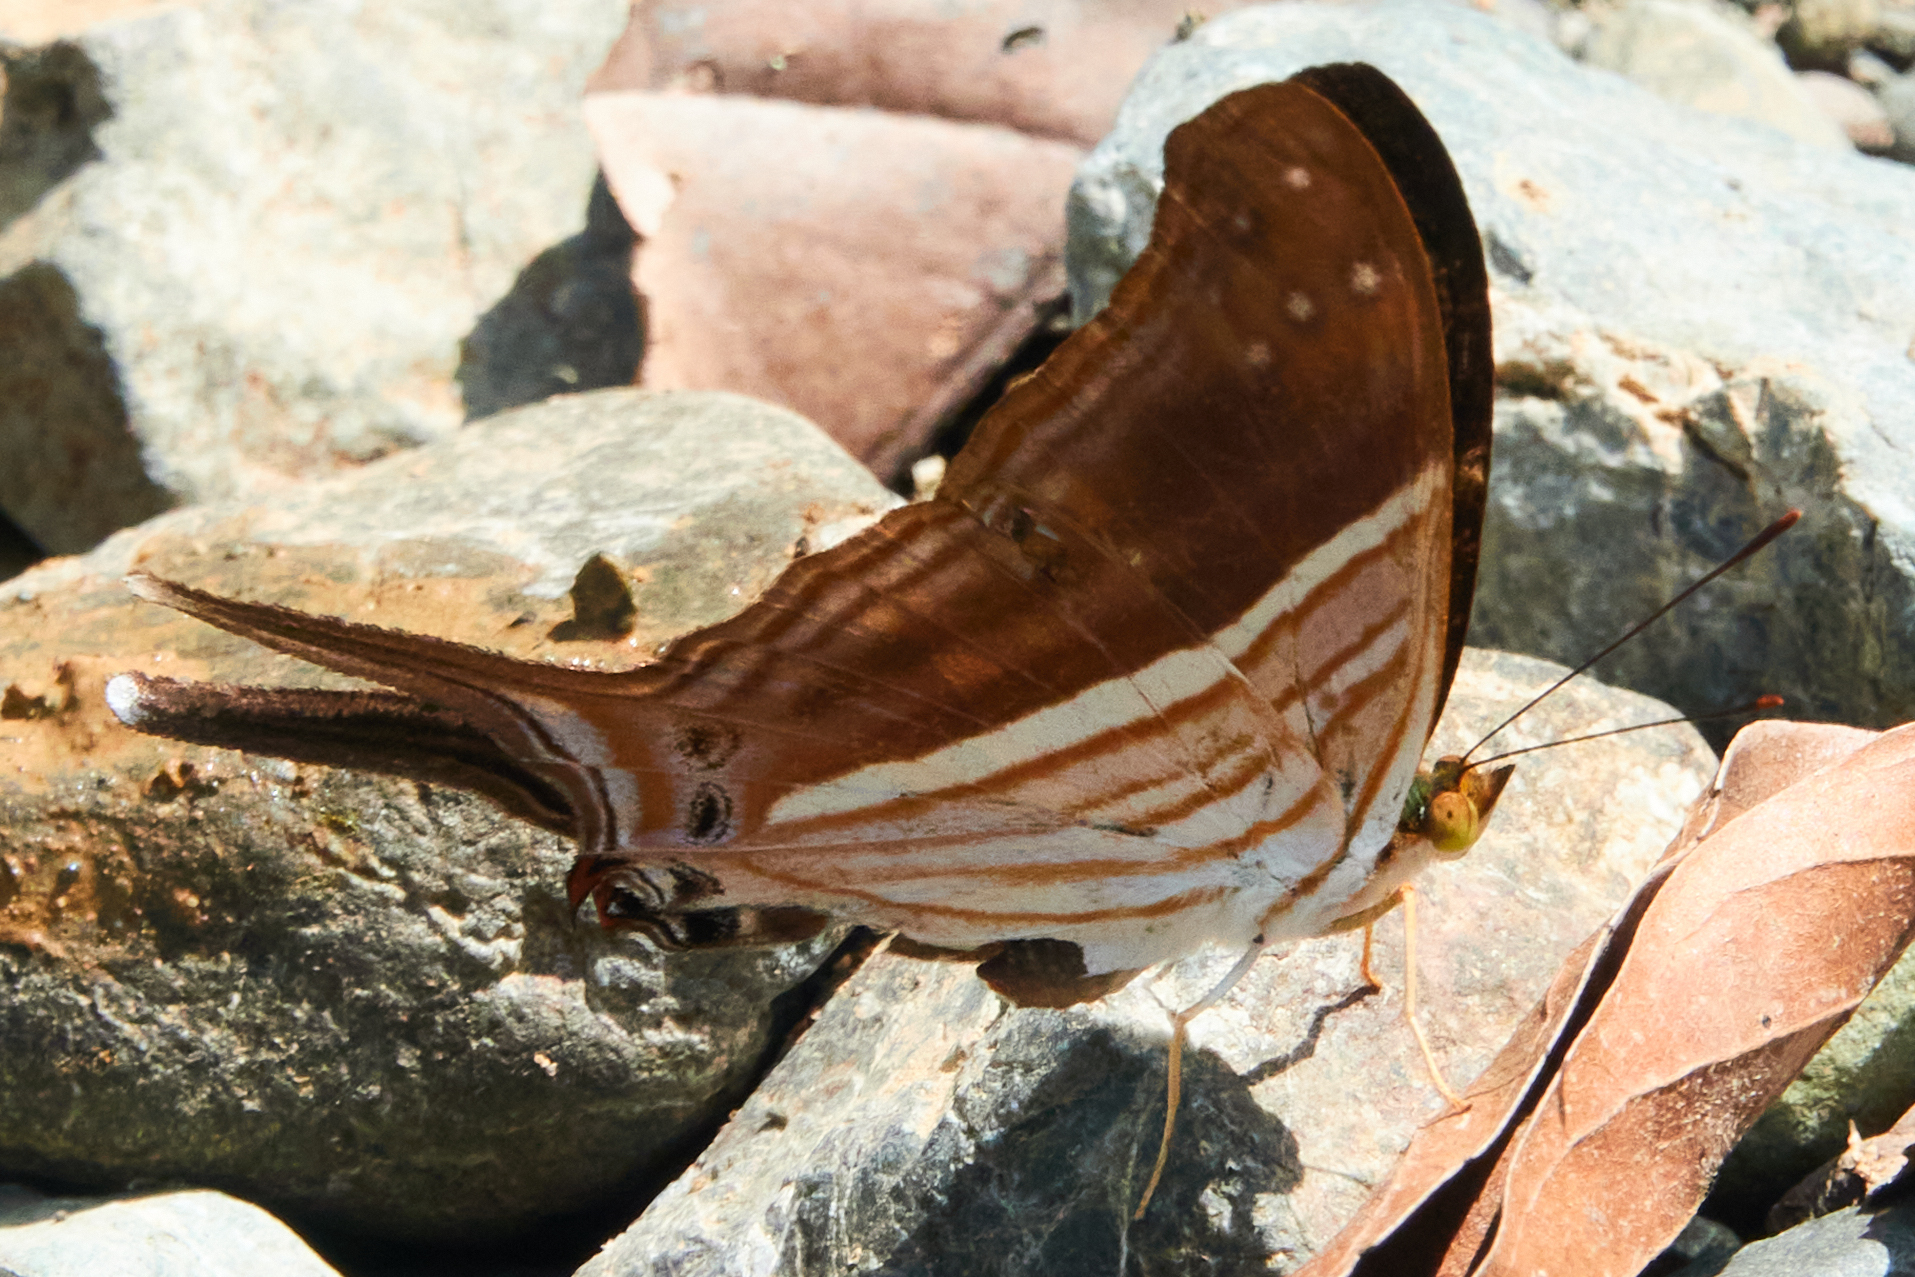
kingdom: Animalia
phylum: Arthropoda
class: Insecta
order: Lepidoptera
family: Nymphalidae
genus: Marpesia
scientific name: Marpesia chiron
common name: Many-banded daggerwing
